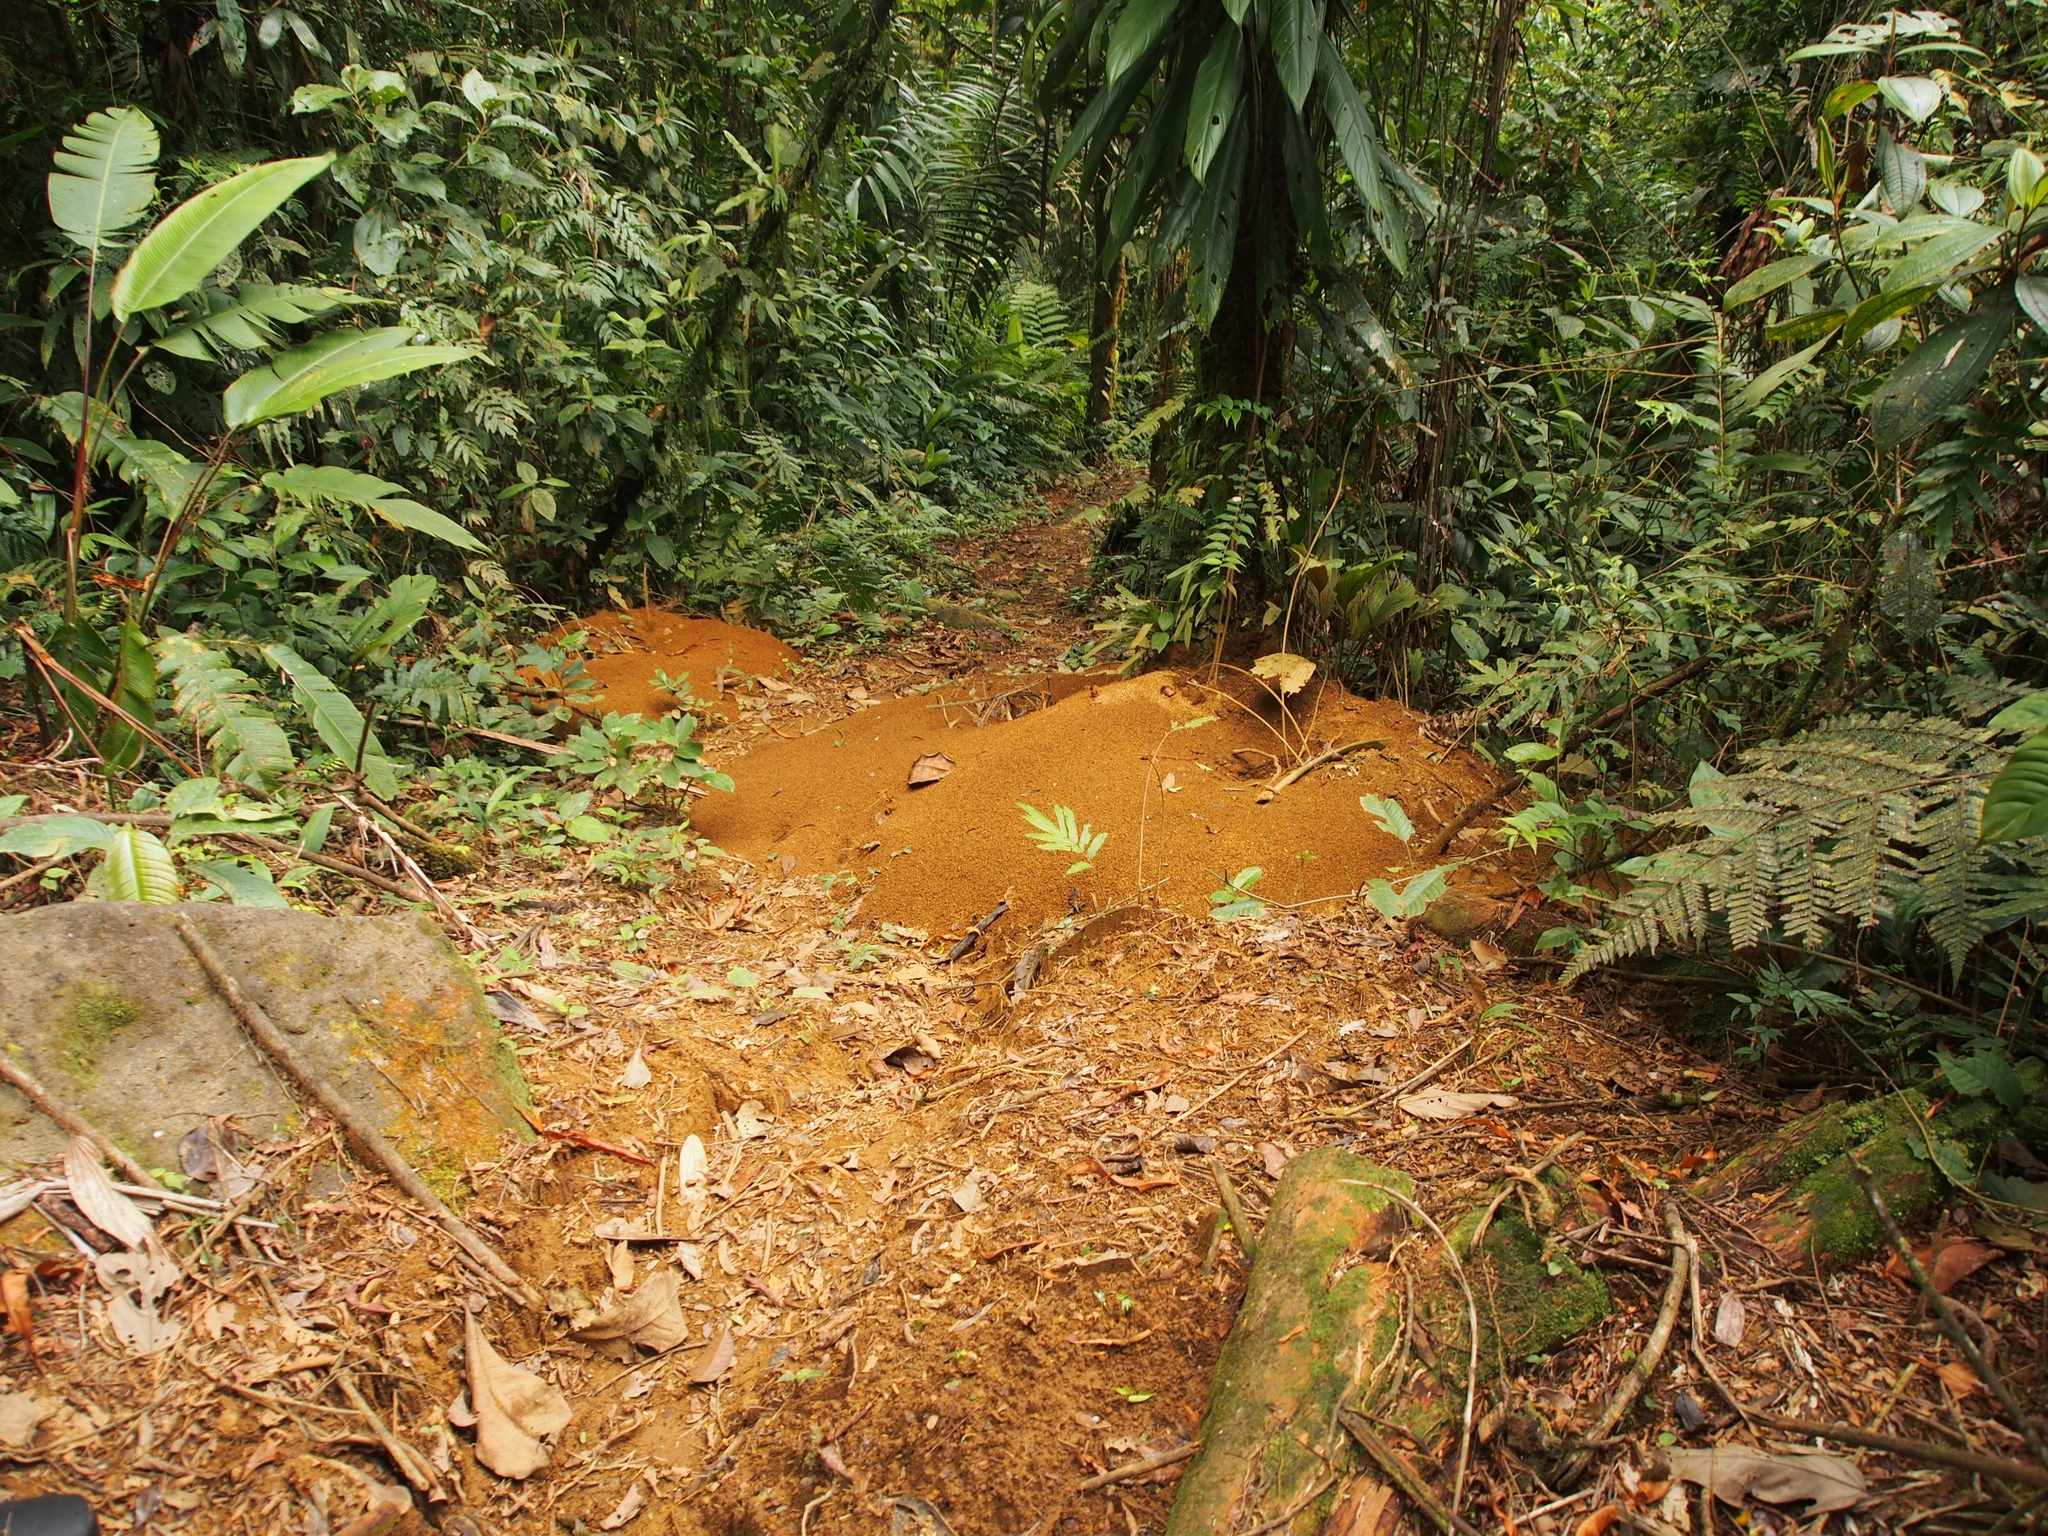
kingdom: Animalia
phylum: Arthropoda
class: Insecta
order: Hymenoptera
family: Formicidae
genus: Atta
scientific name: Atta cephalotes
